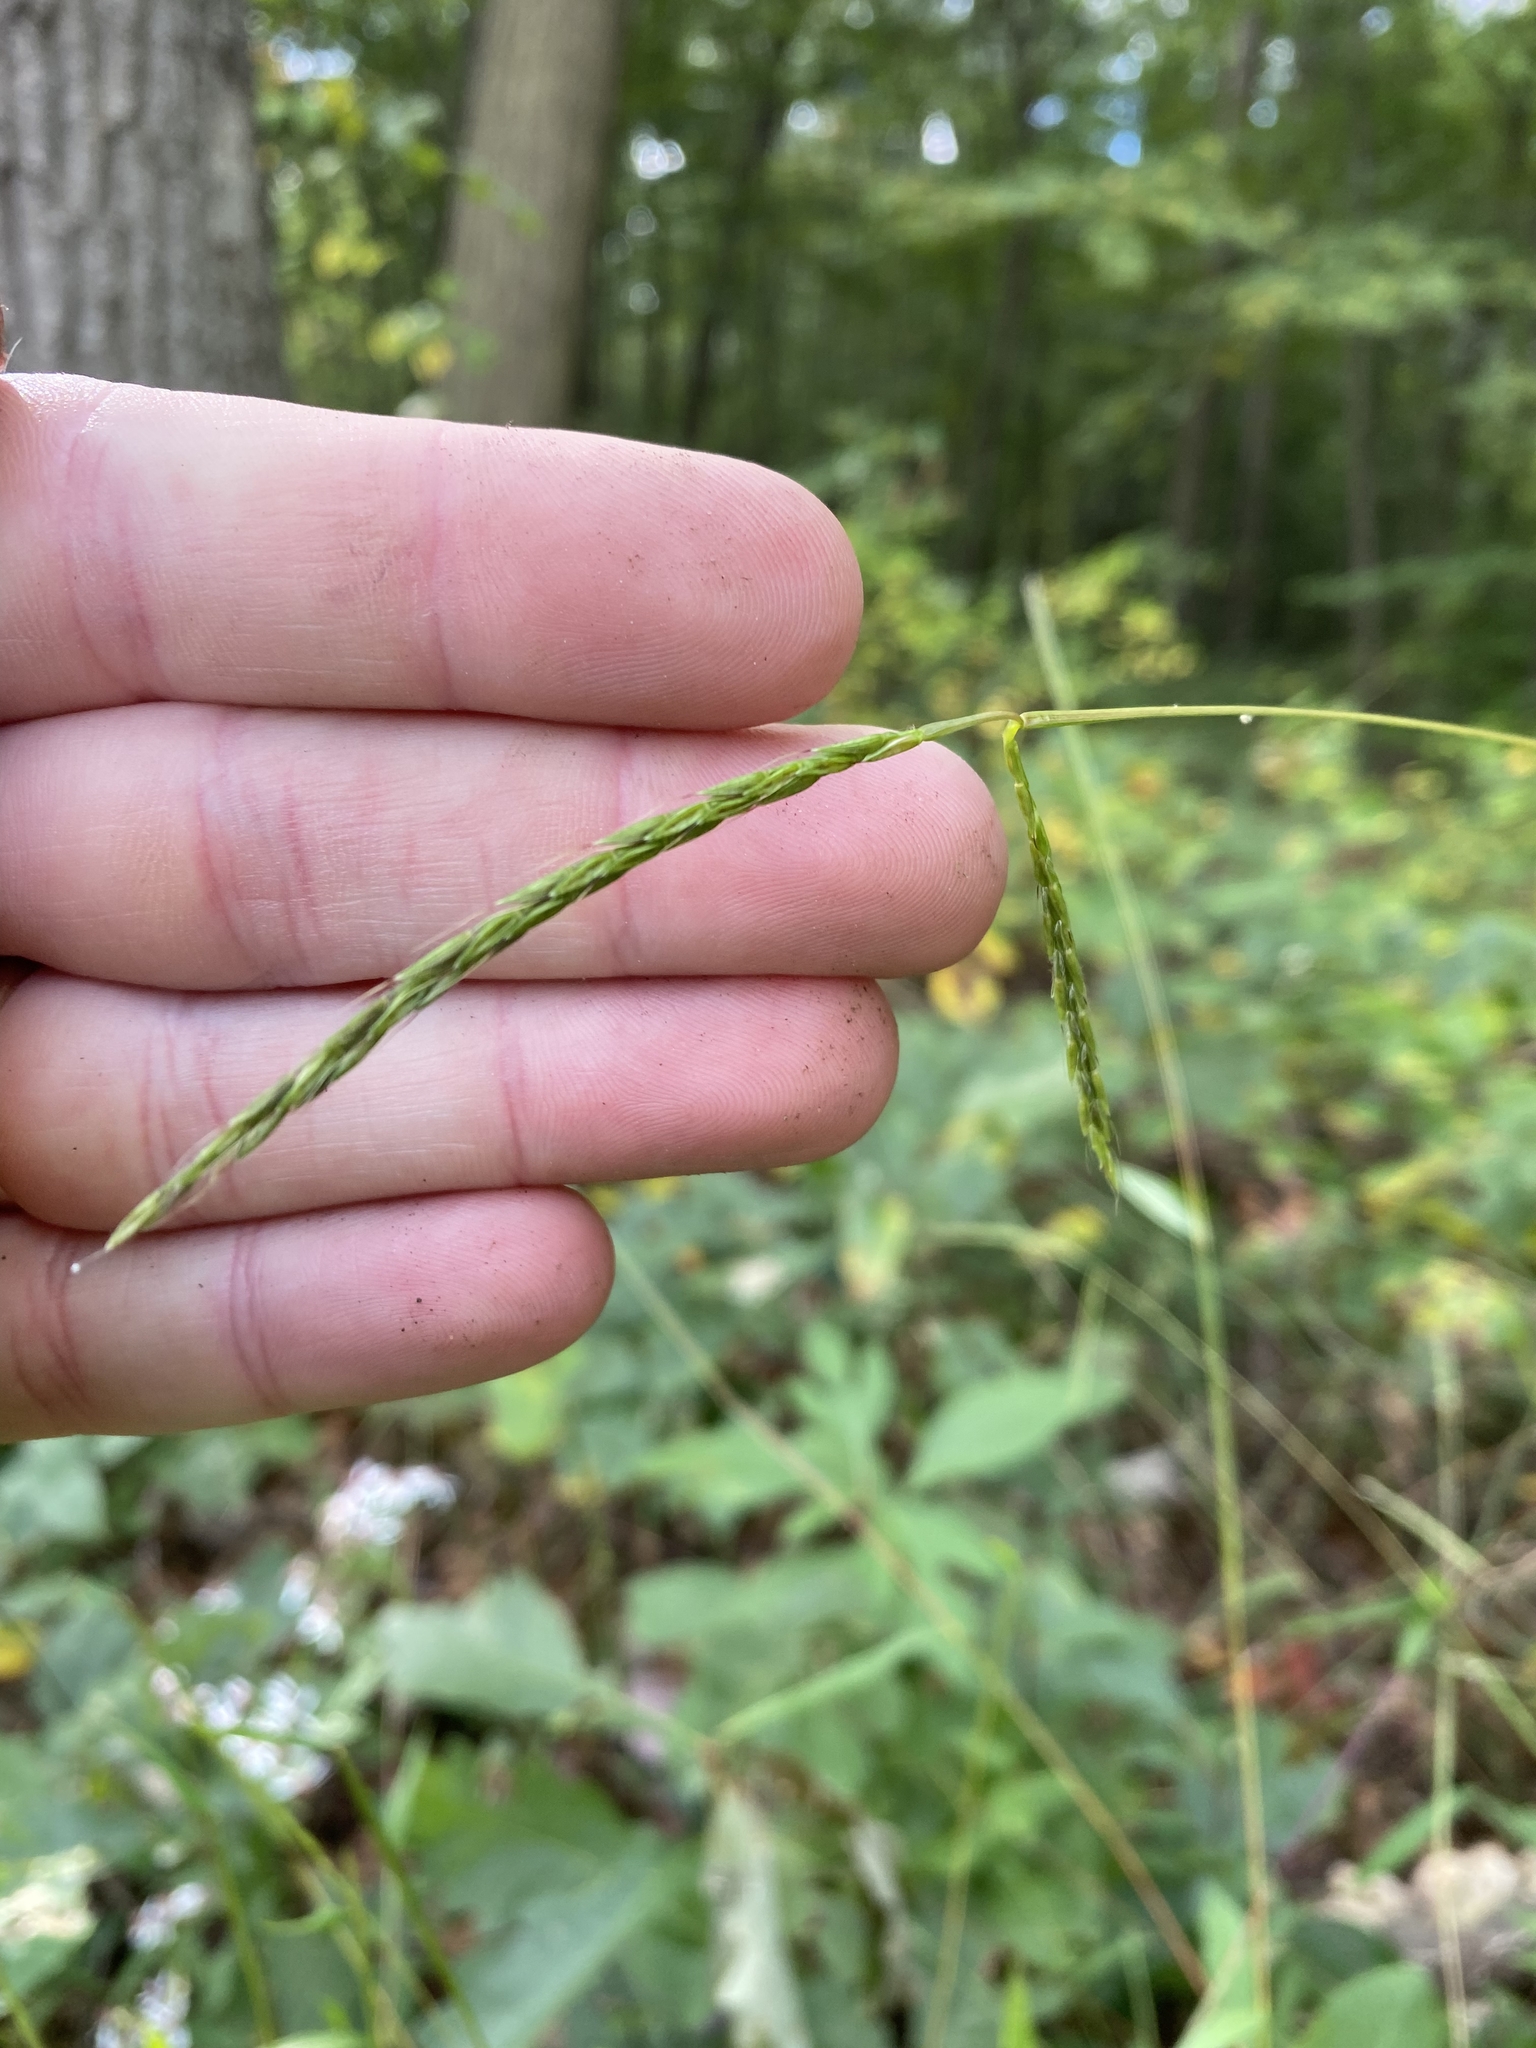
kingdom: Plantae
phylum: Tracheophyta
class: Liliopsida
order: Poales
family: Poaceae
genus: Microstegium
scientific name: Microstegium vimineum
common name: Japanese stiltgrass
